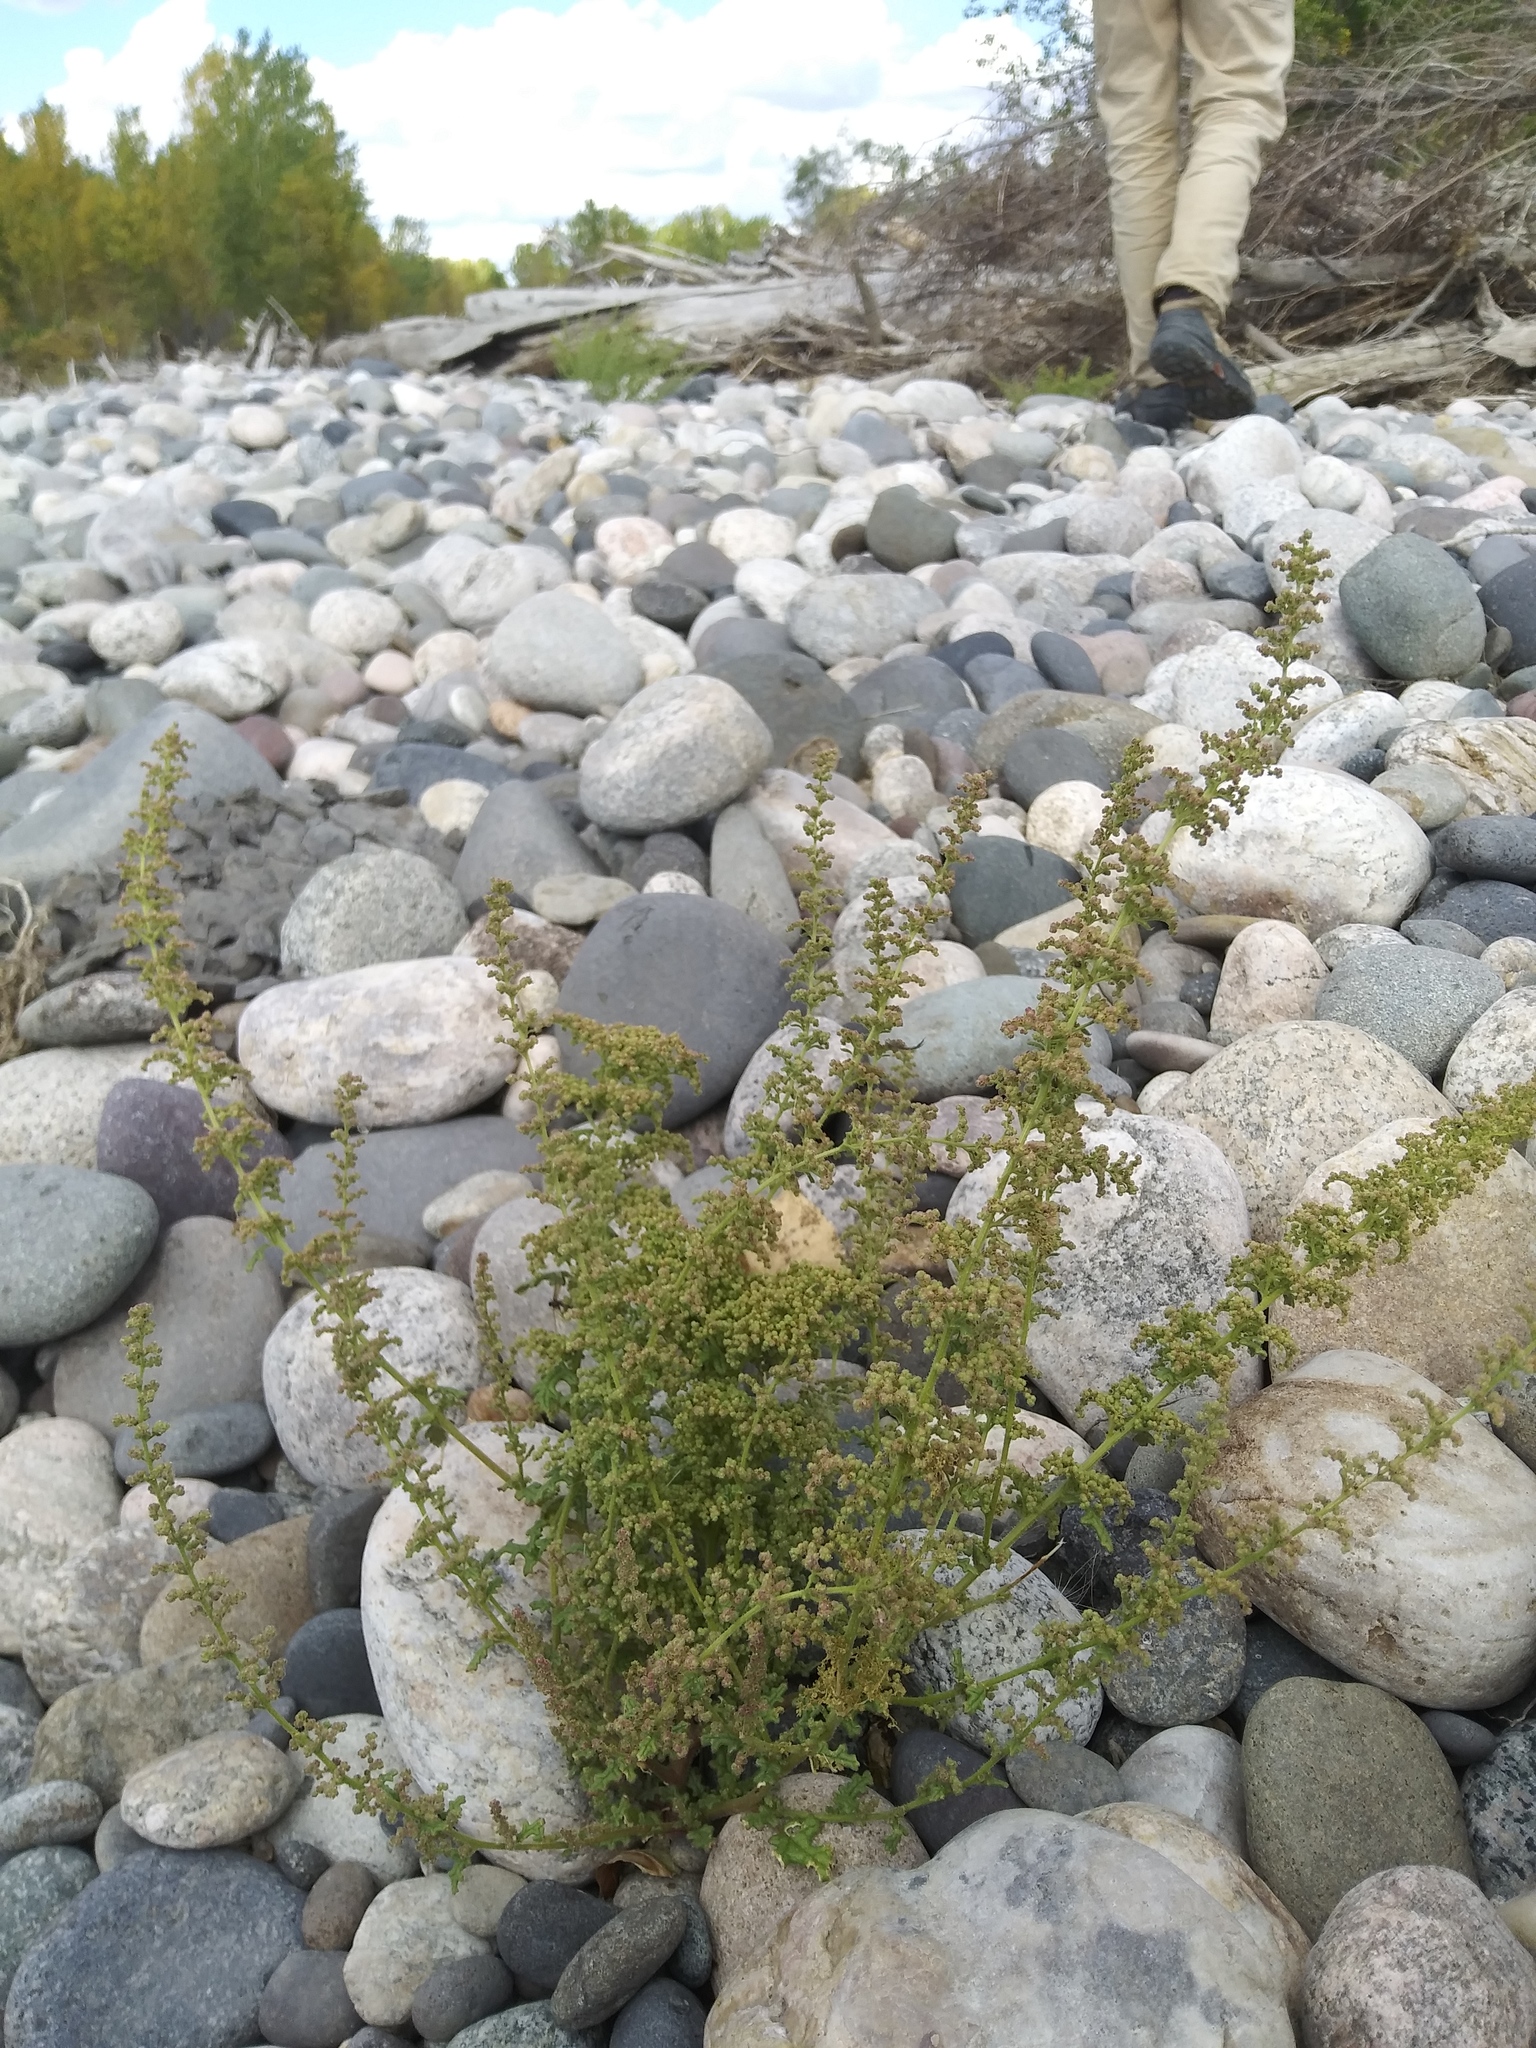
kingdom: Plantae
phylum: Tracheophyta
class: Magnoliopsida
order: Caryophyllales
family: Amaranthaceae
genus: Dysphania
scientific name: Dysphania botrys
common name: Feather-geranium
